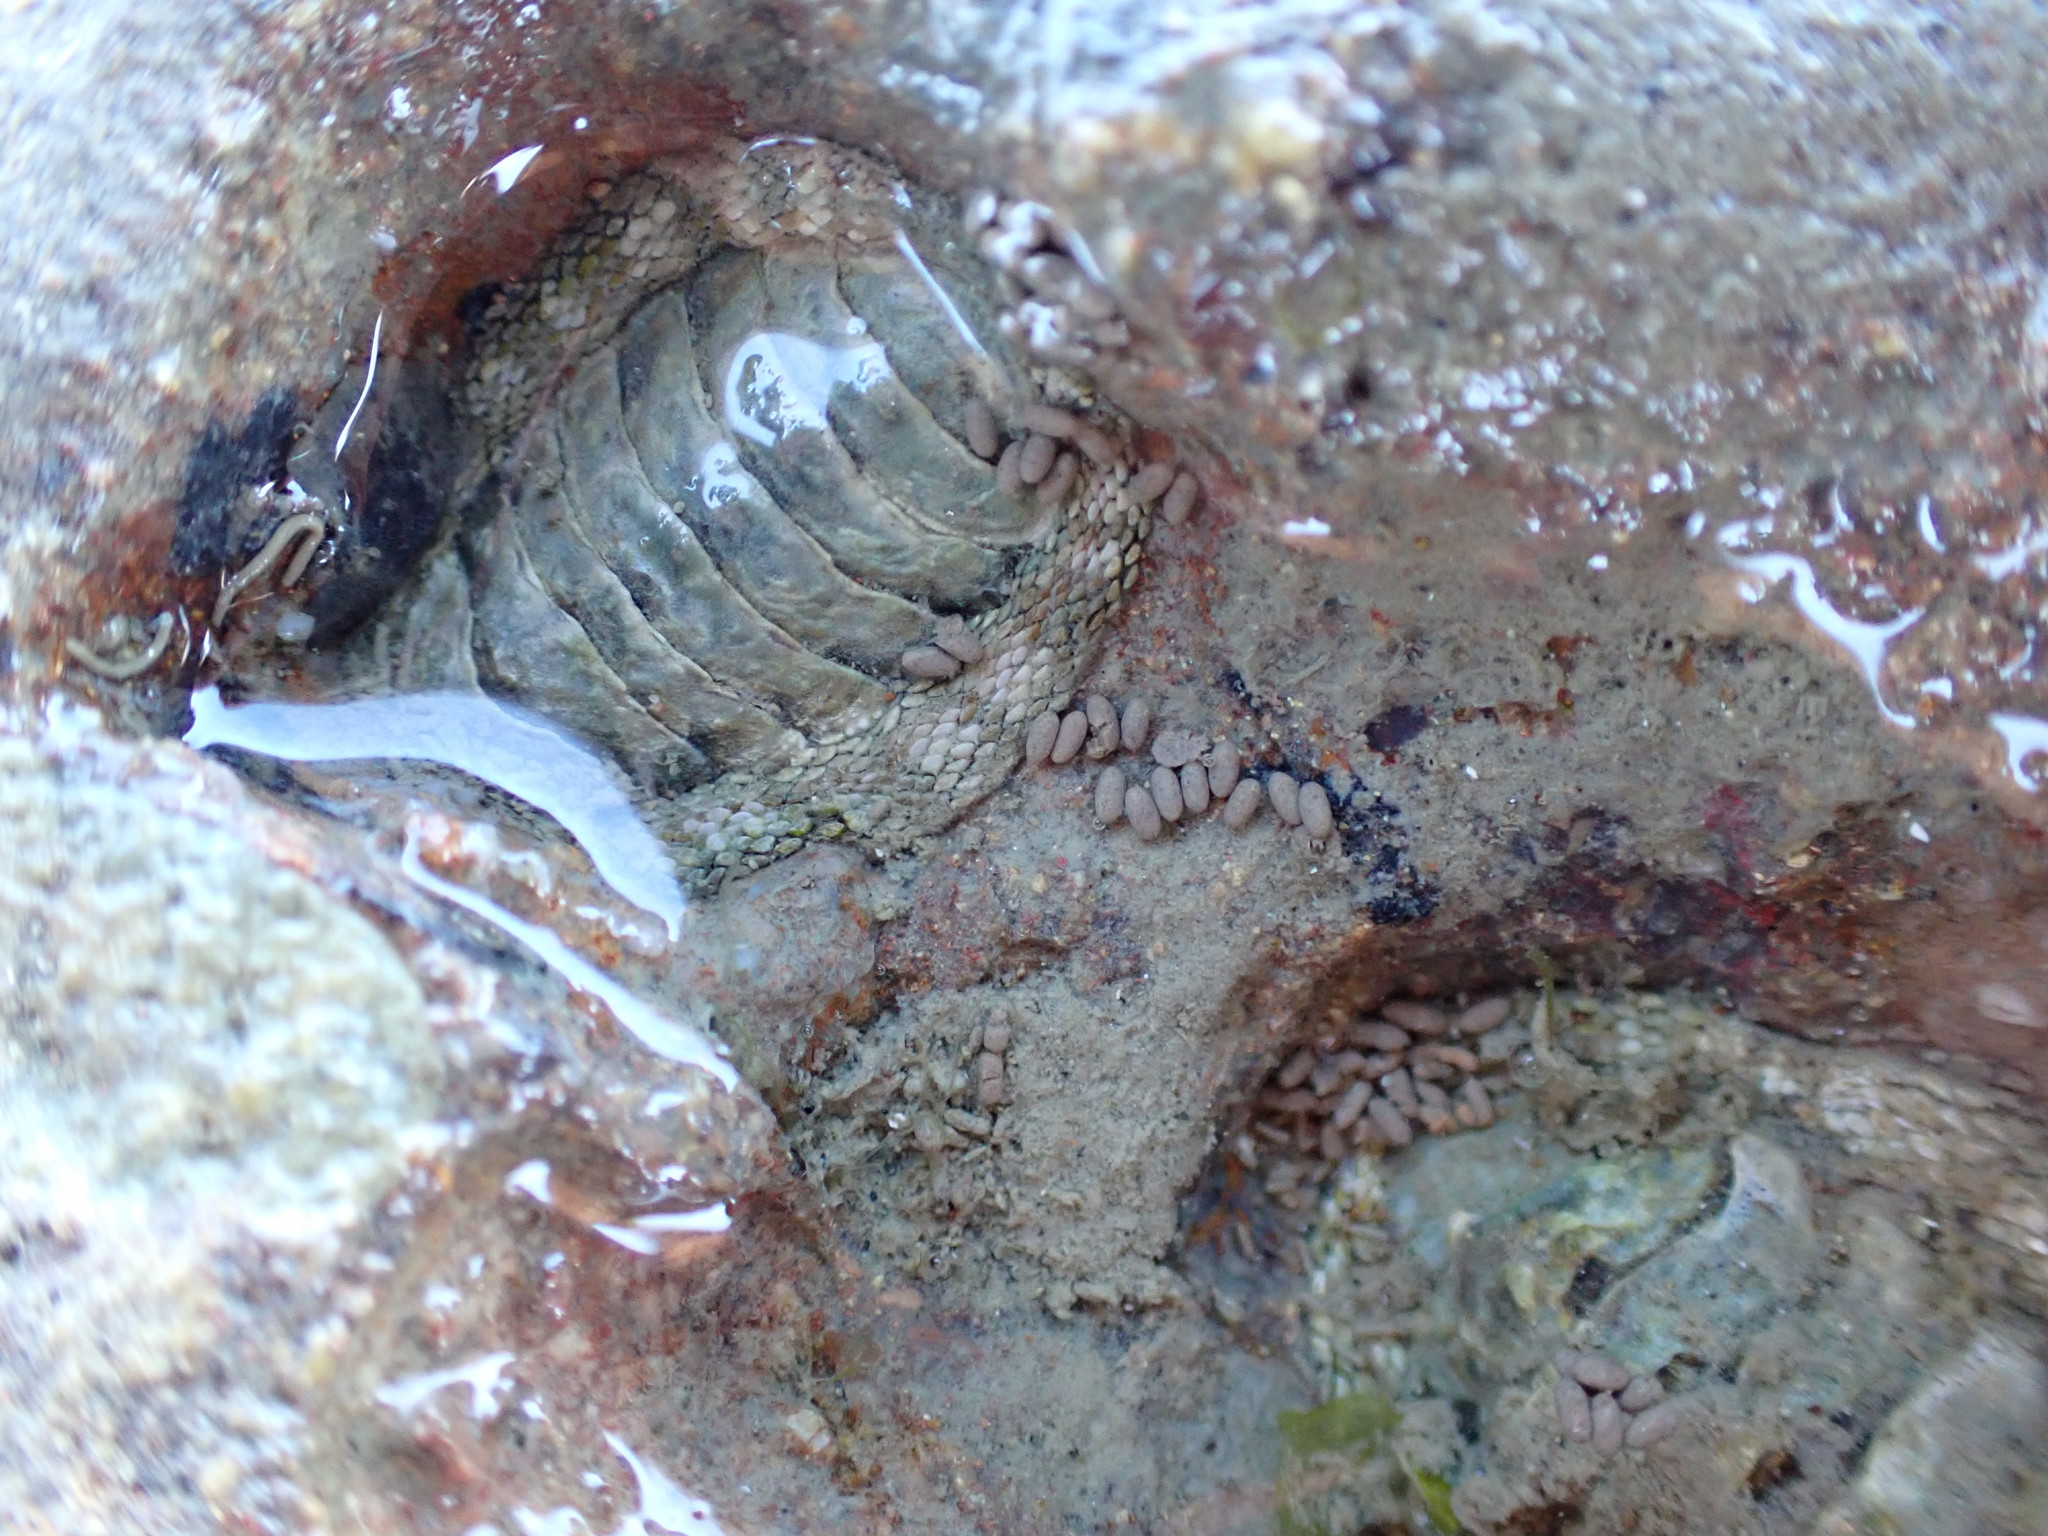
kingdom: Animalia
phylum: Mollusca
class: Polyplacophora
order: Chitonida
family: Chitonidae
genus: Sypharochiton
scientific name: Sypharochiton pelliserpentis
